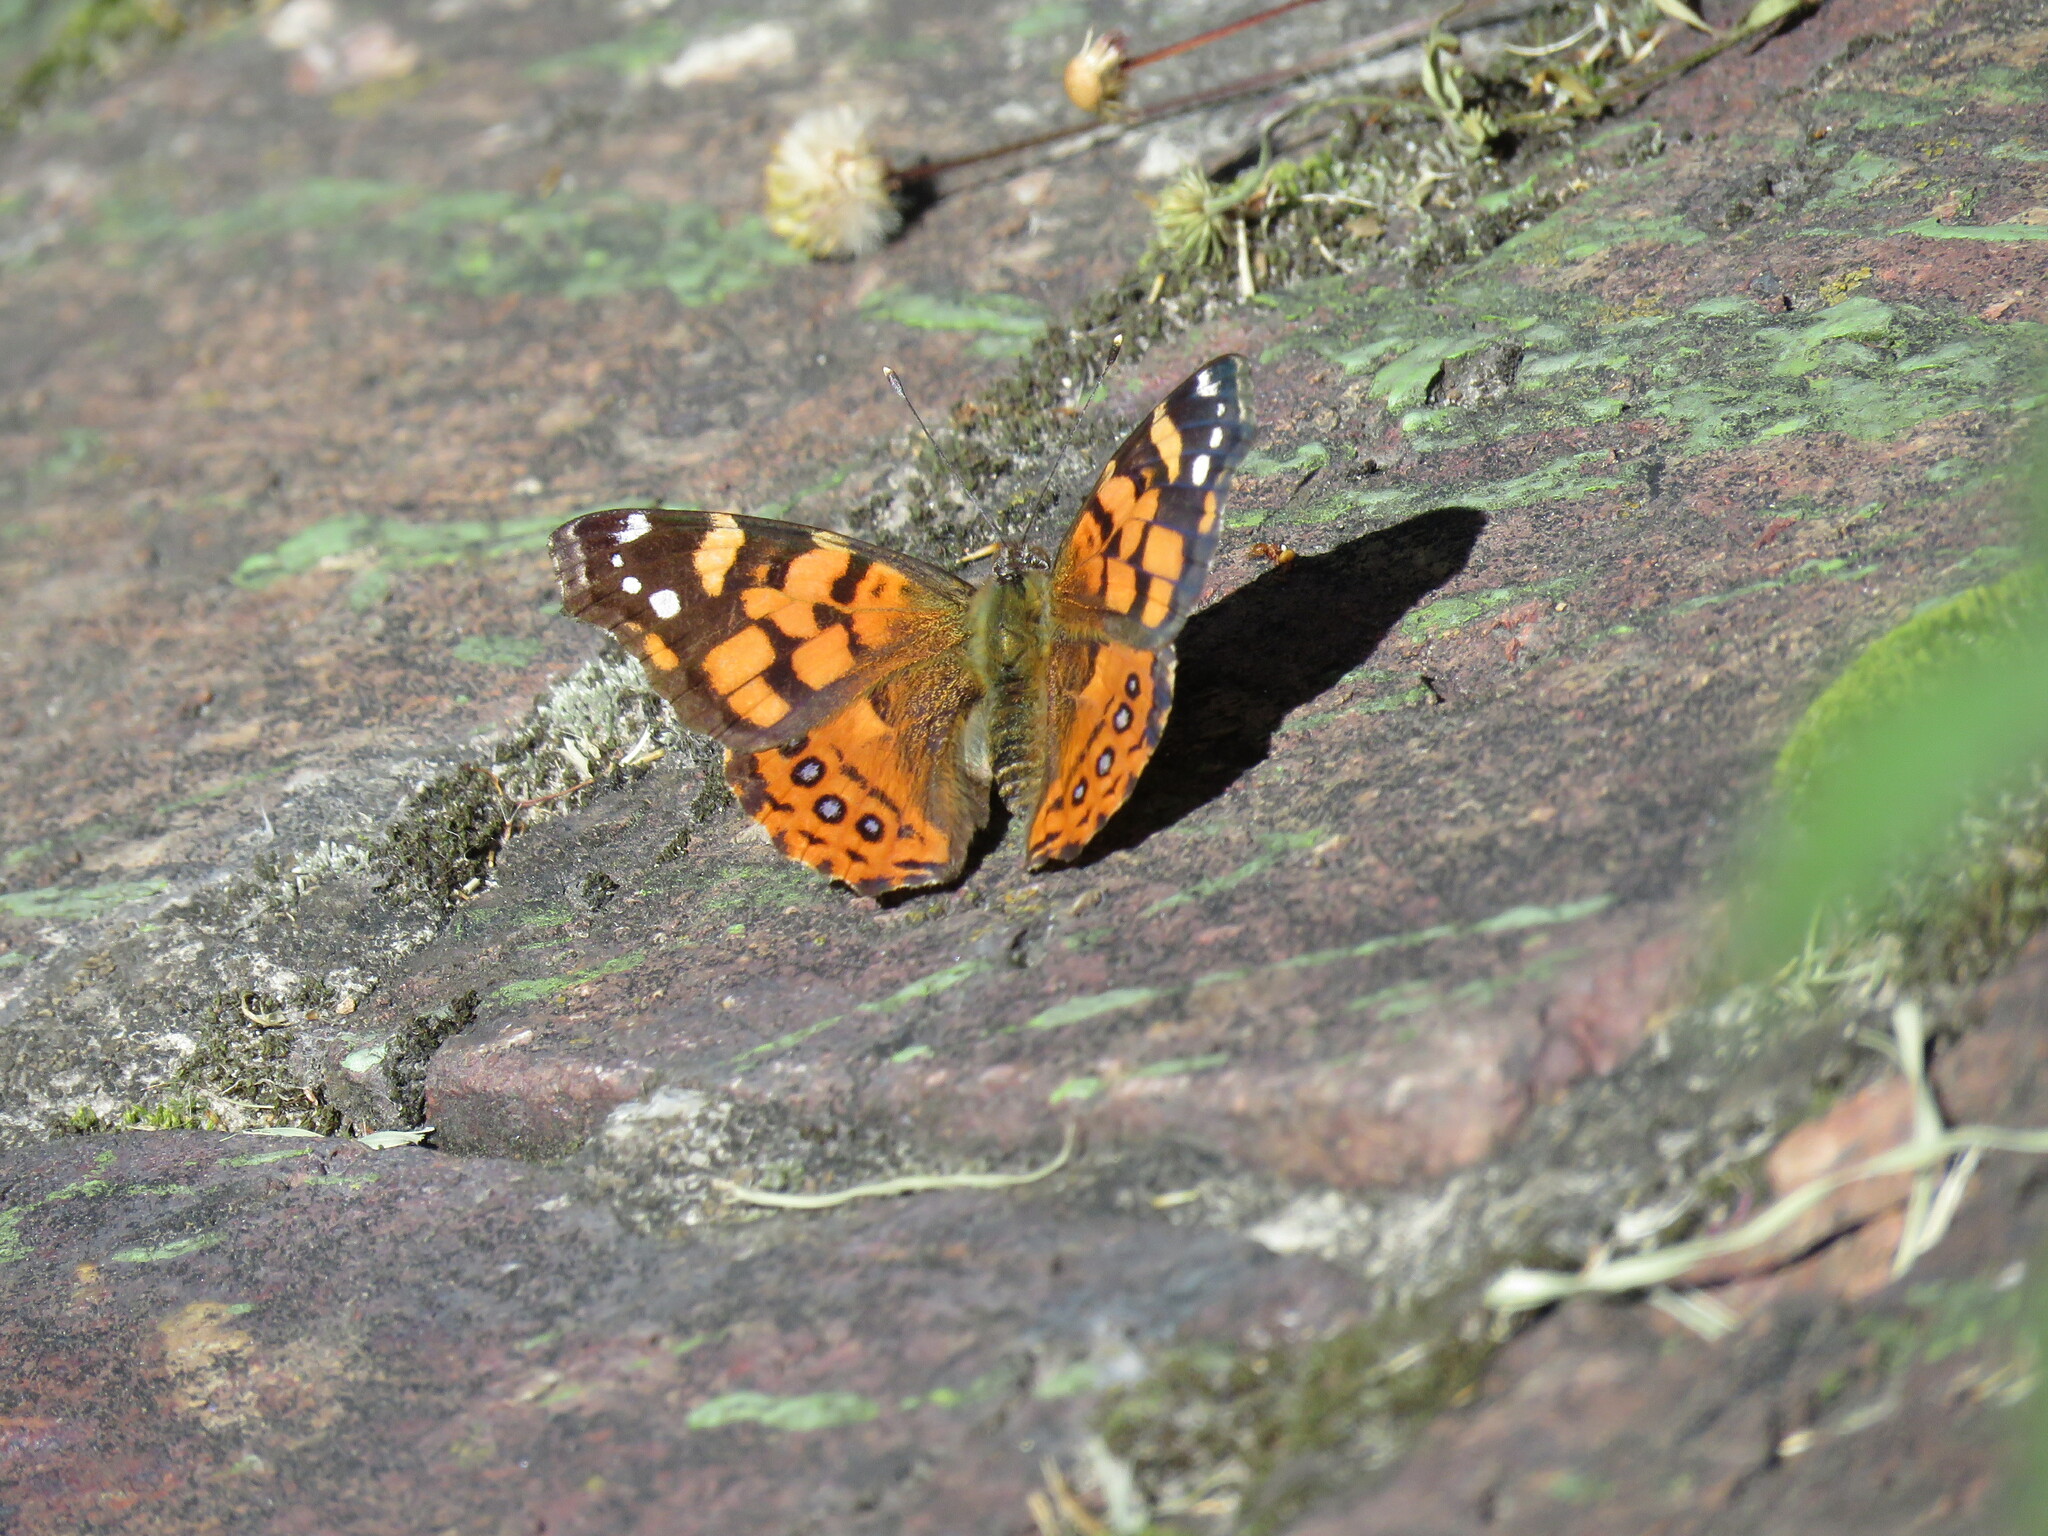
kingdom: Animalia
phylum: Arthropoda
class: Insecta
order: Lepidoptera
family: Nymphalidae
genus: Vanessa
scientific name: Vanessa carye
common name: Subtropical lady
